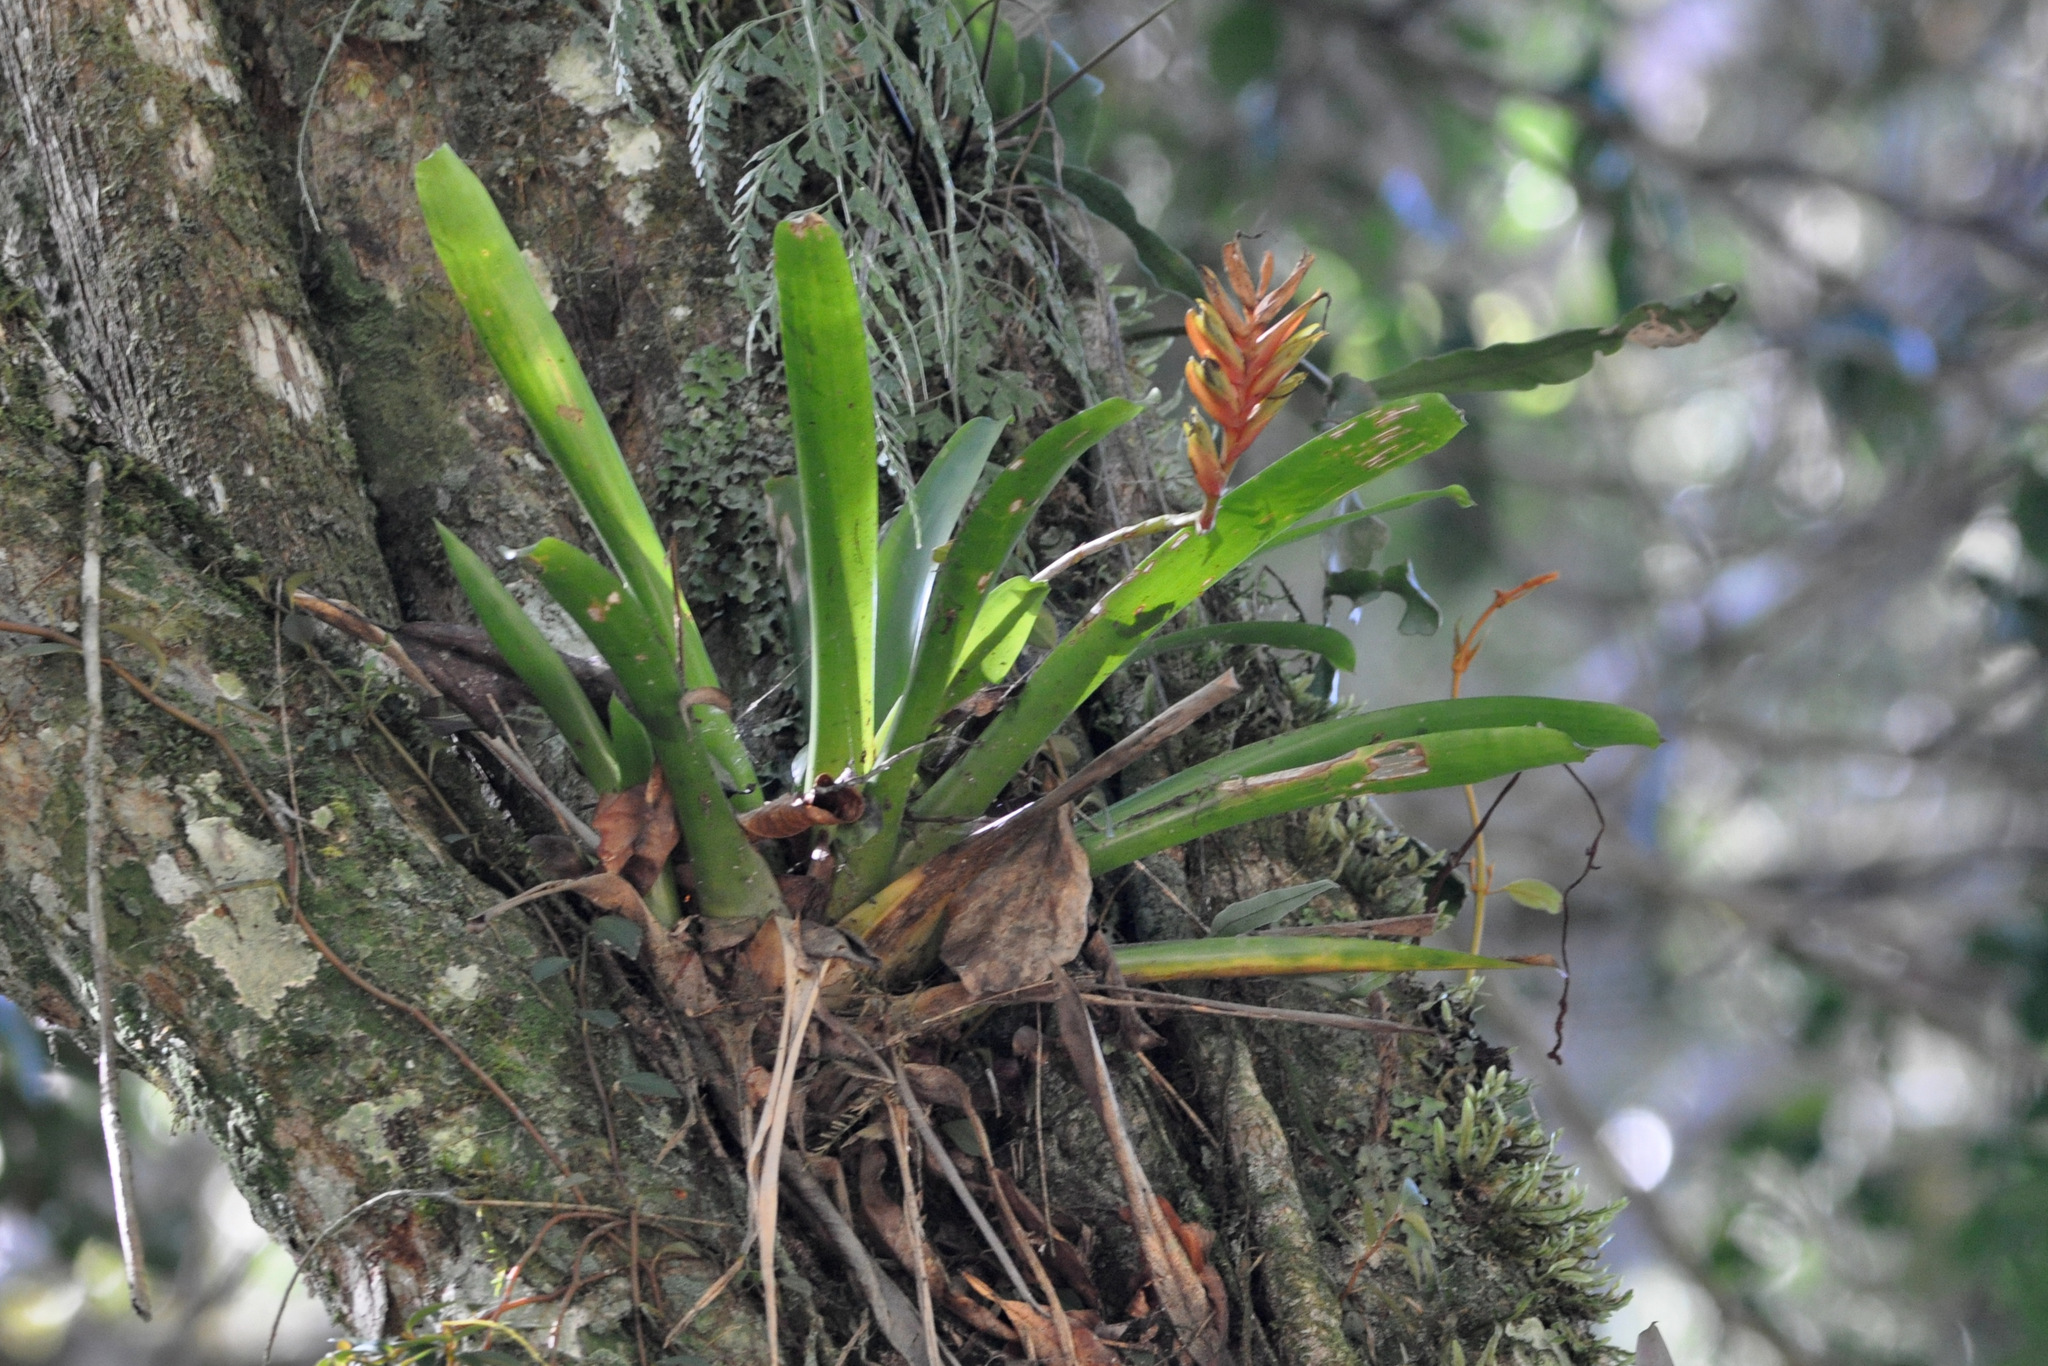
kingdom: Plantae
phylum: Tracheophyta
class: Liliopsida
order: Poales
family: Bromeliaceae
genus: Vriesea
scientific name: Vriesea carinata
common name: Lobster-claws
